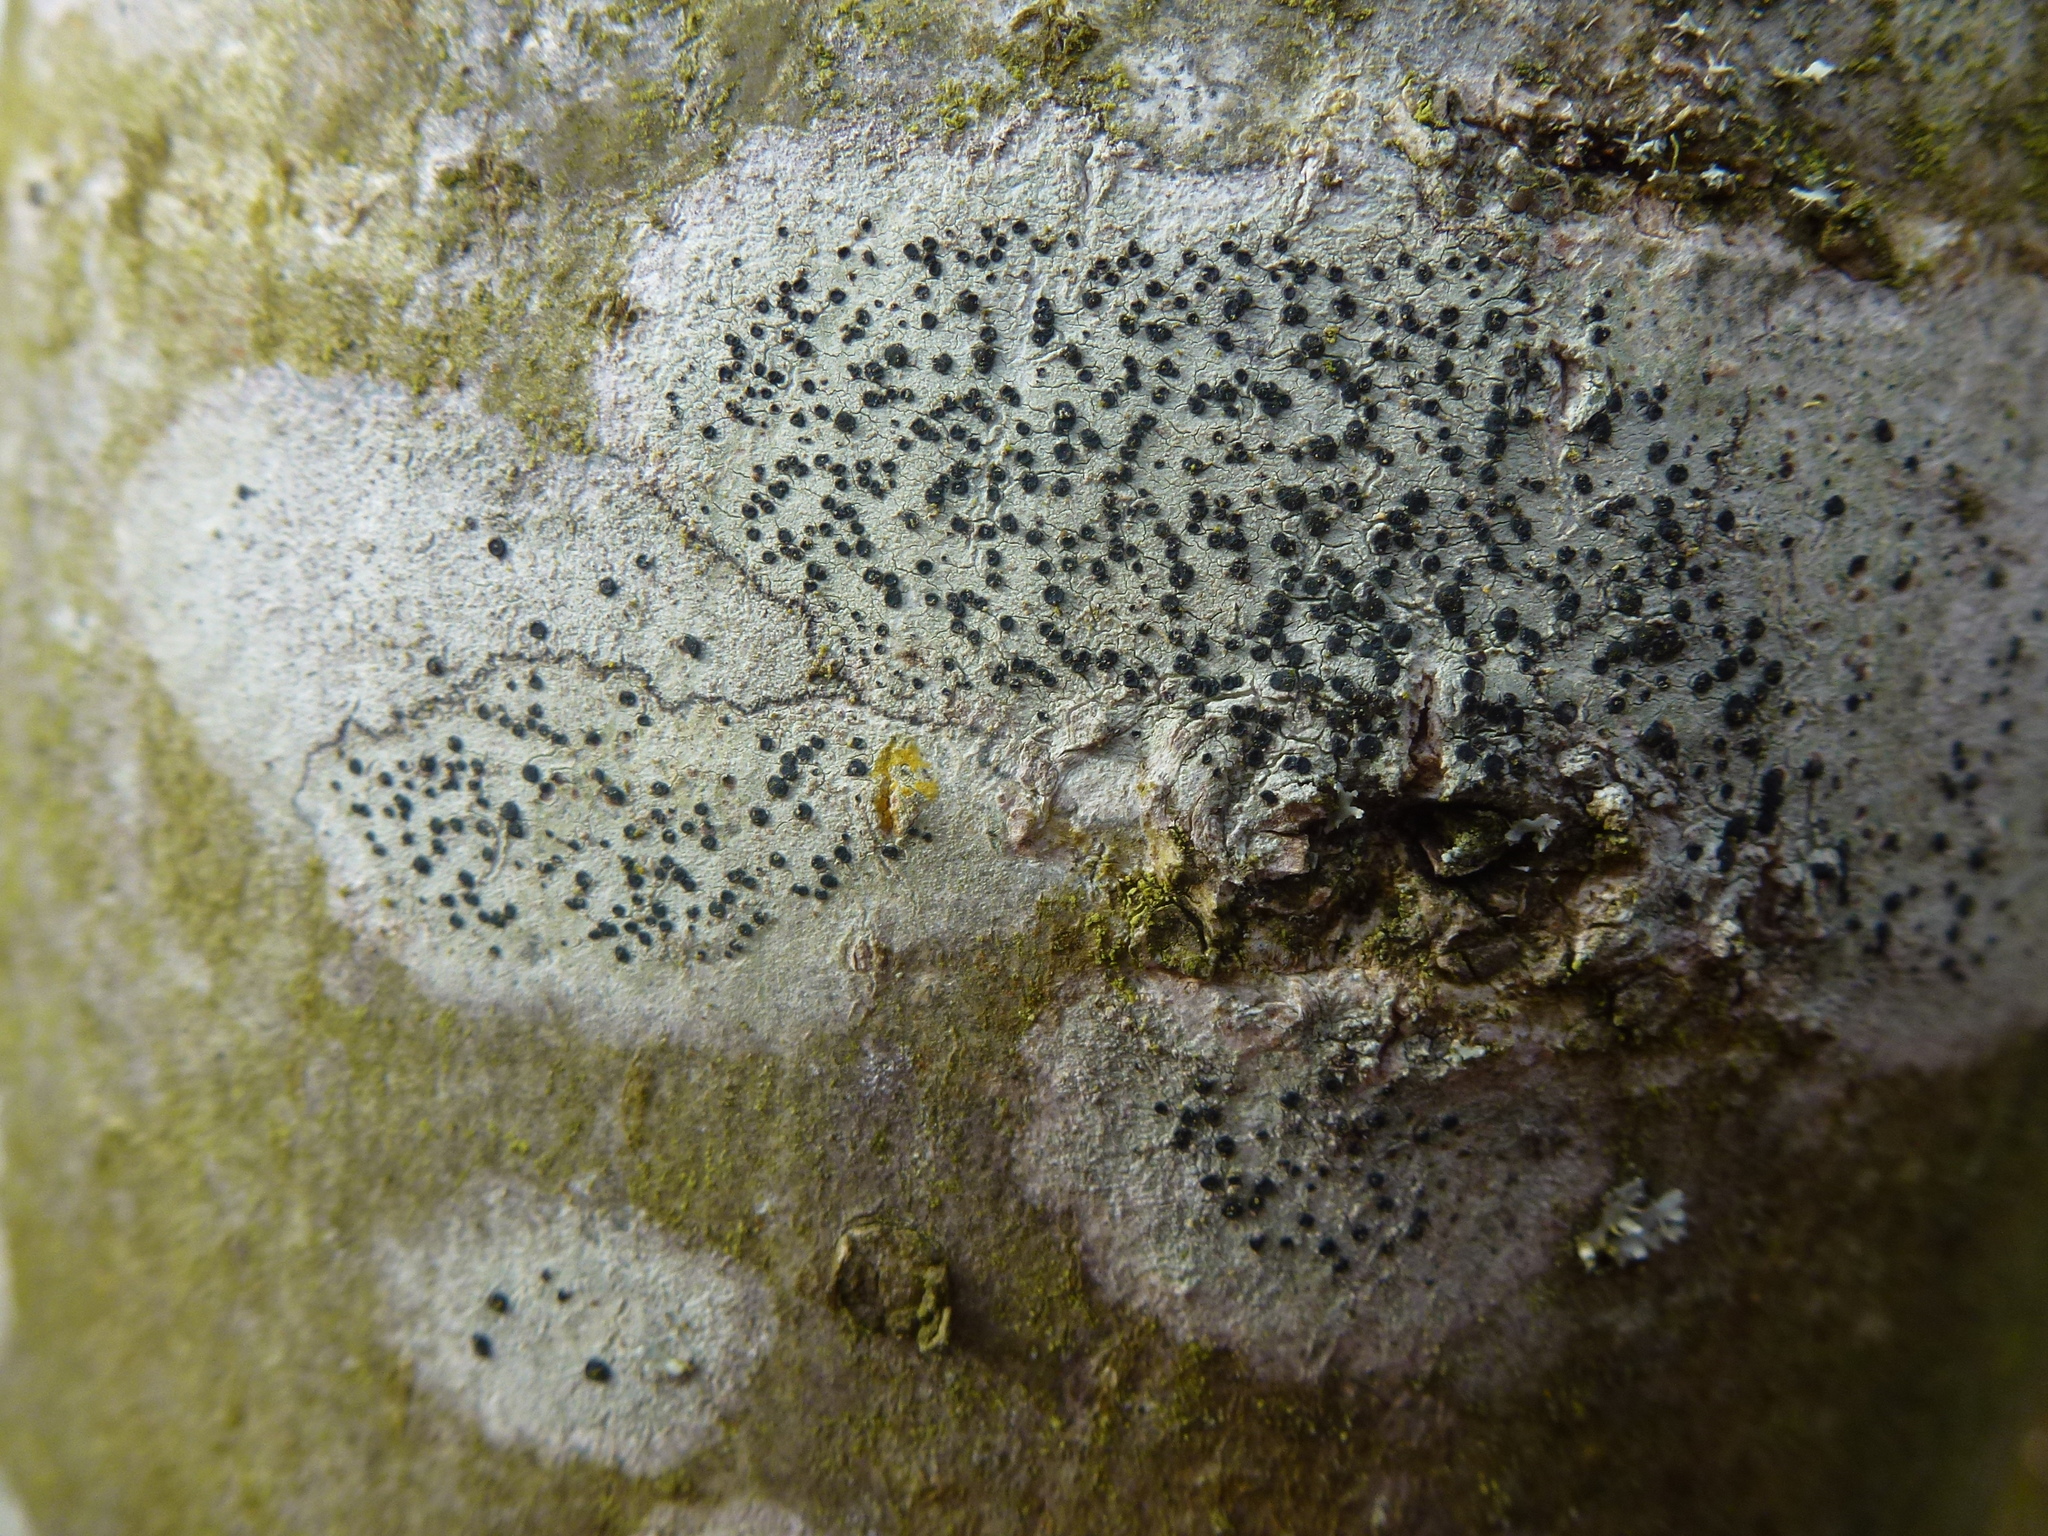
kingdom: Fungi
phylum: Ascomycota
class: Lecanoromycetes
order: Lecanorales
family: Lecanoraceae
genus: Lecidella
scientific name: Lecidella elaeochroma
